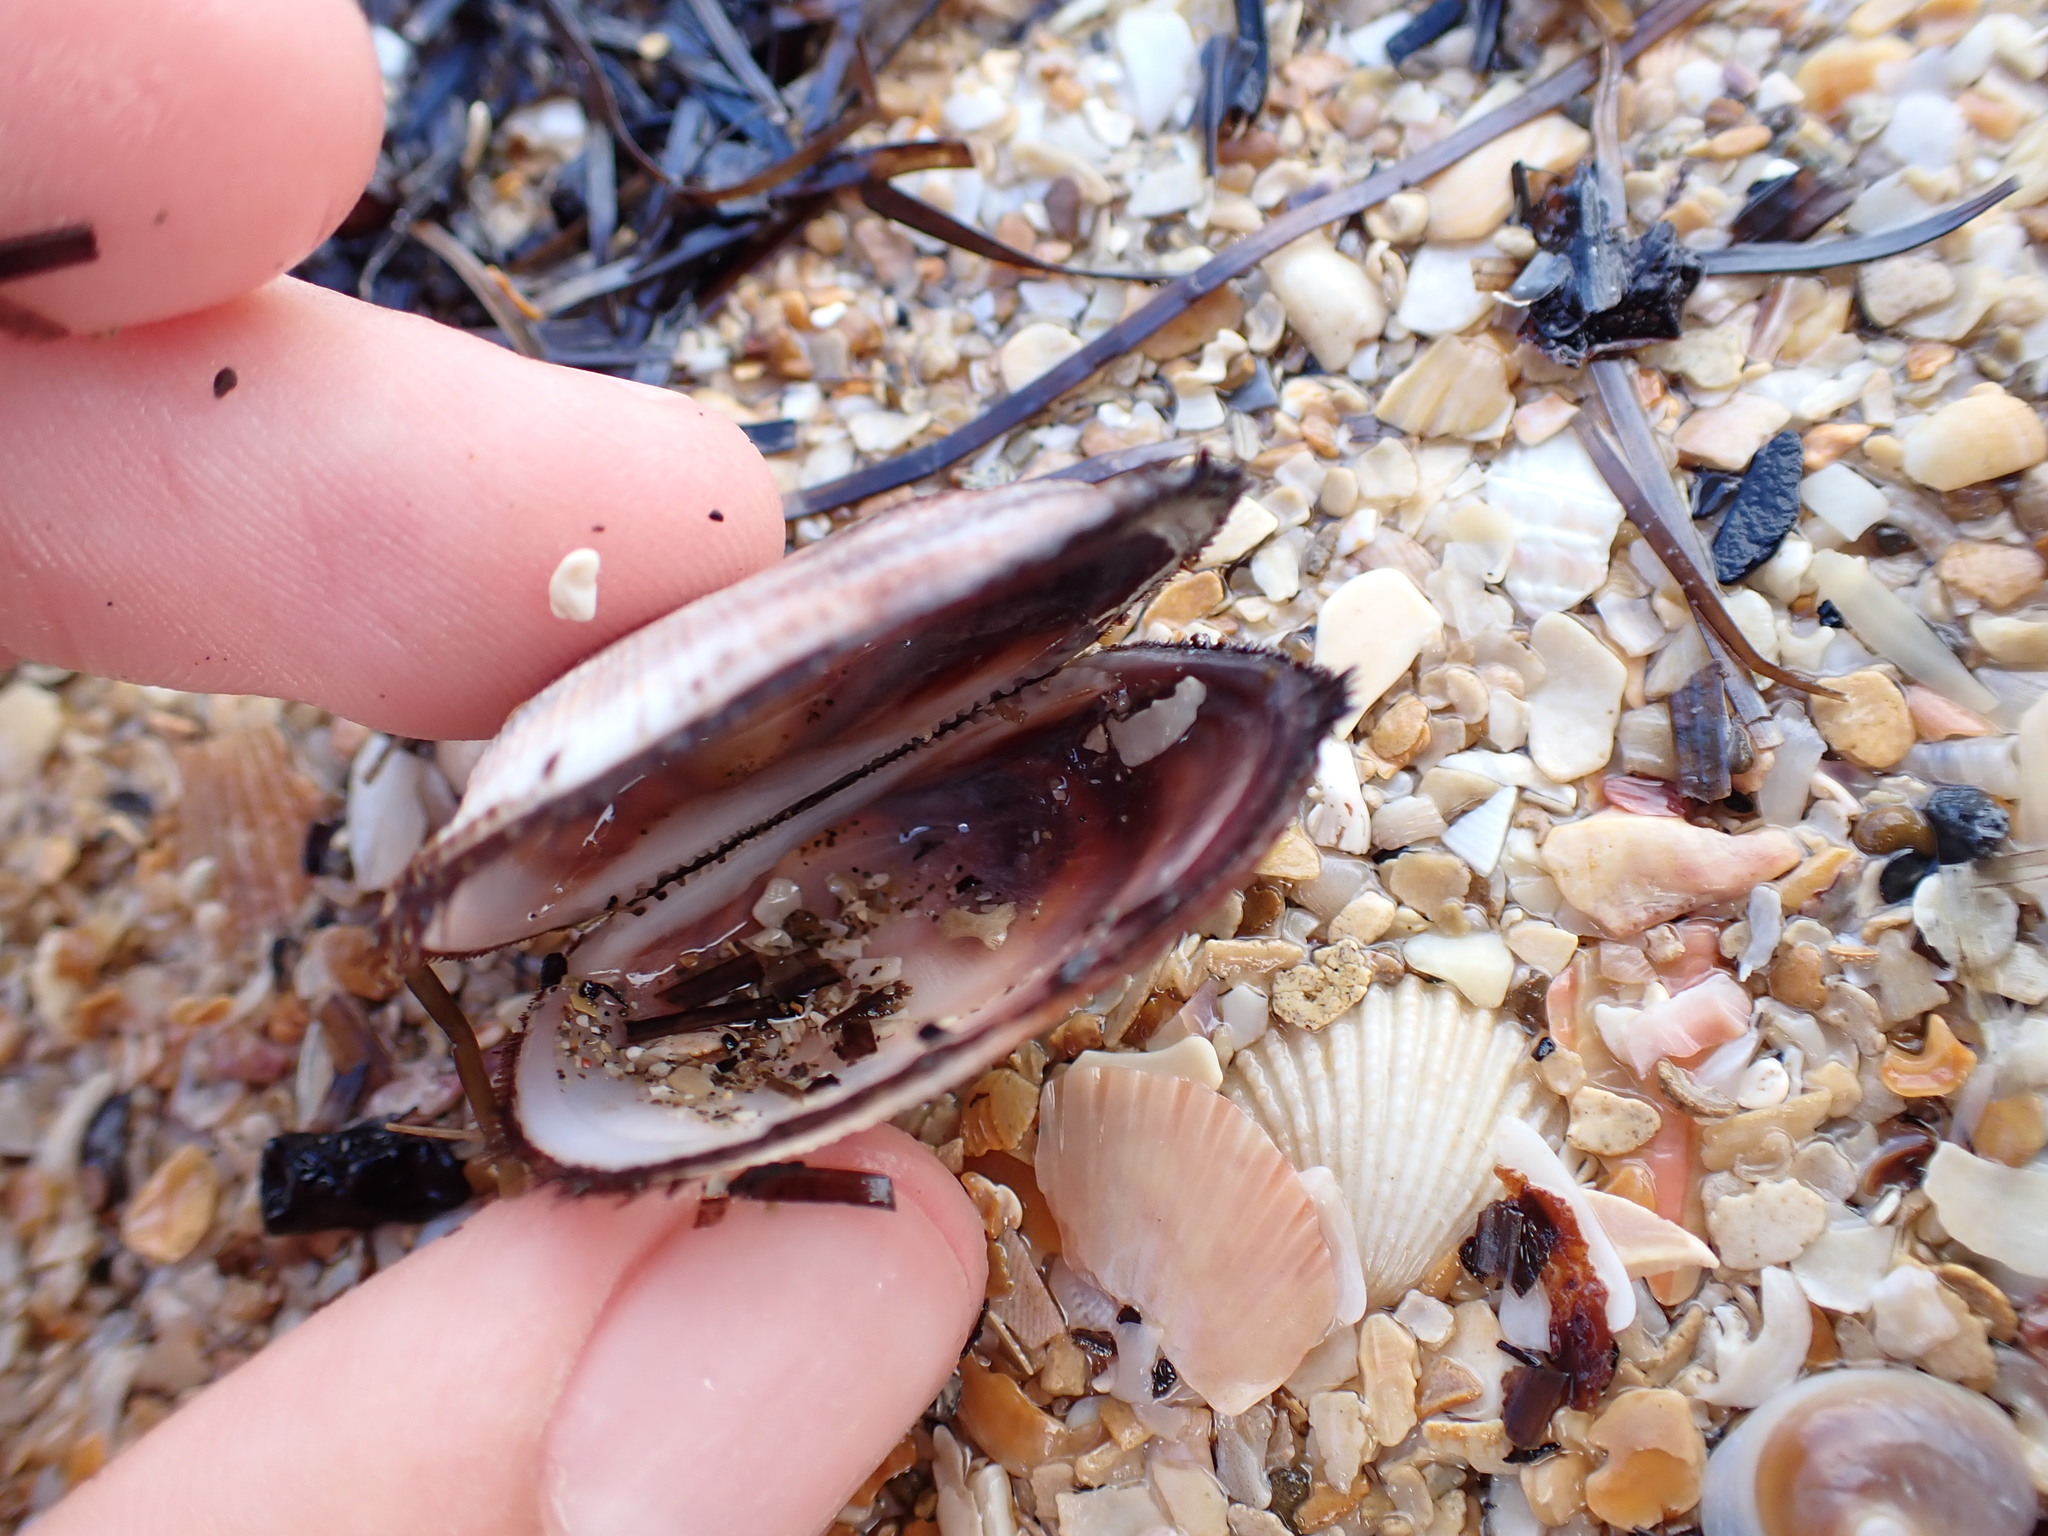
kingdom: Animalia
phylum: Mollusca
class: Bivalvia
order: Arcida
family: Arcidae
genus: Barbatia
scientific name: Barbatia novaezealandiae
